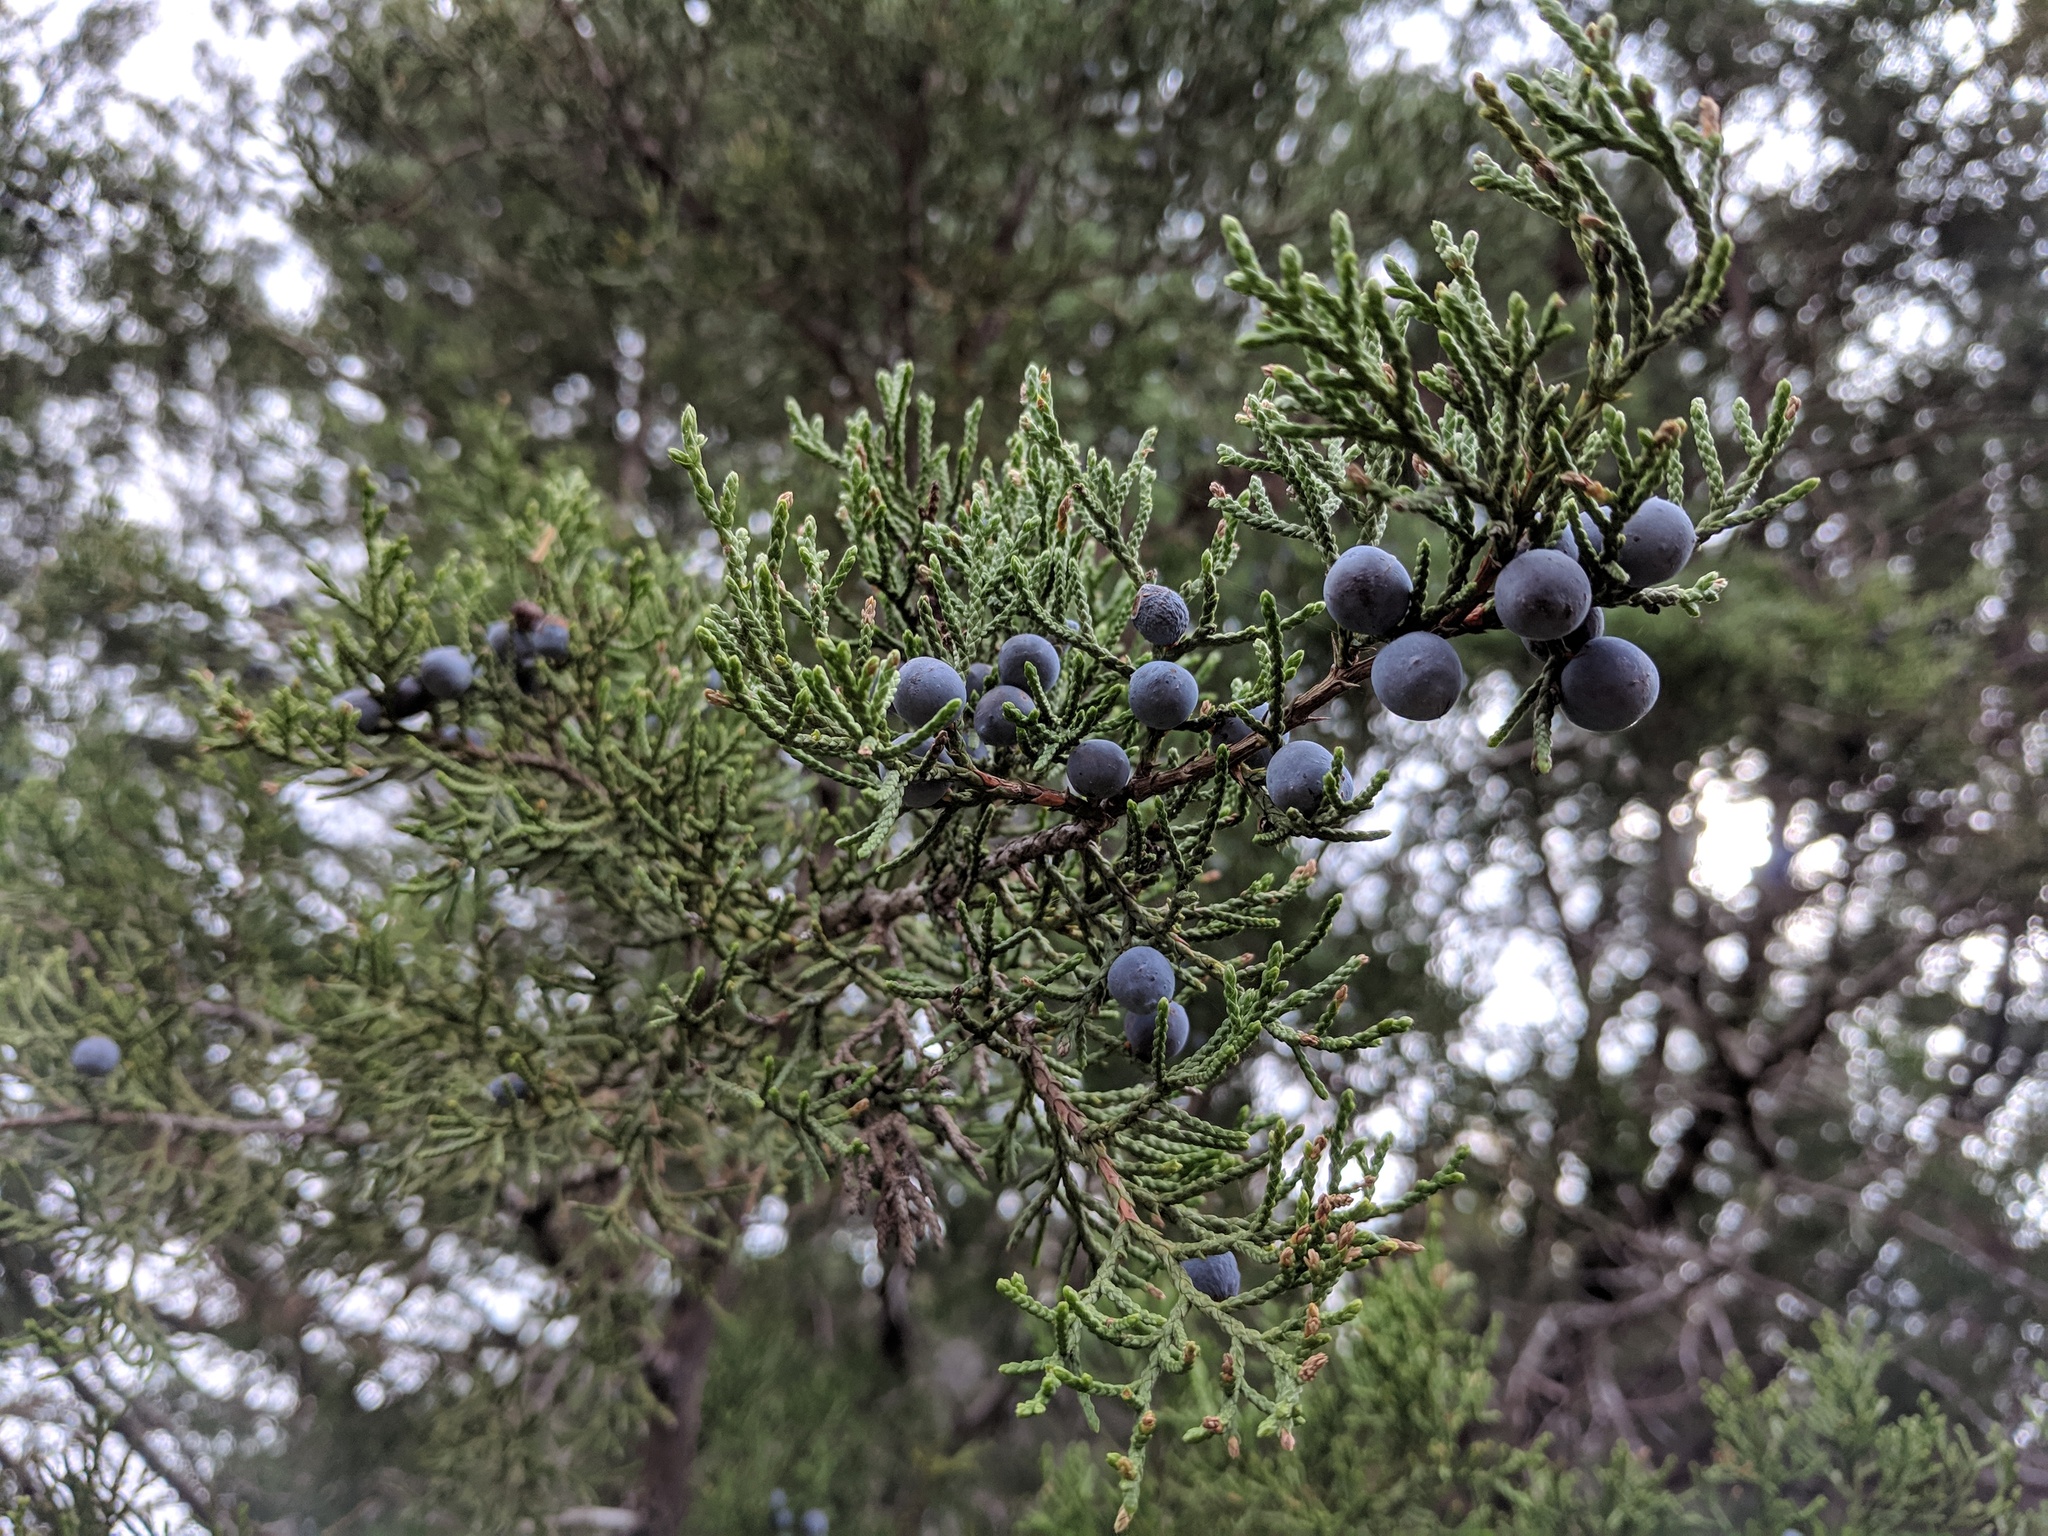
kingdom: Plantae
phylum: Tracheophyta
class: Pinopsida
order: Pinales
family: Cupressaceae
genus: Juniperus
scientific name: Juniperus ashei
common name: Mexican juniper
